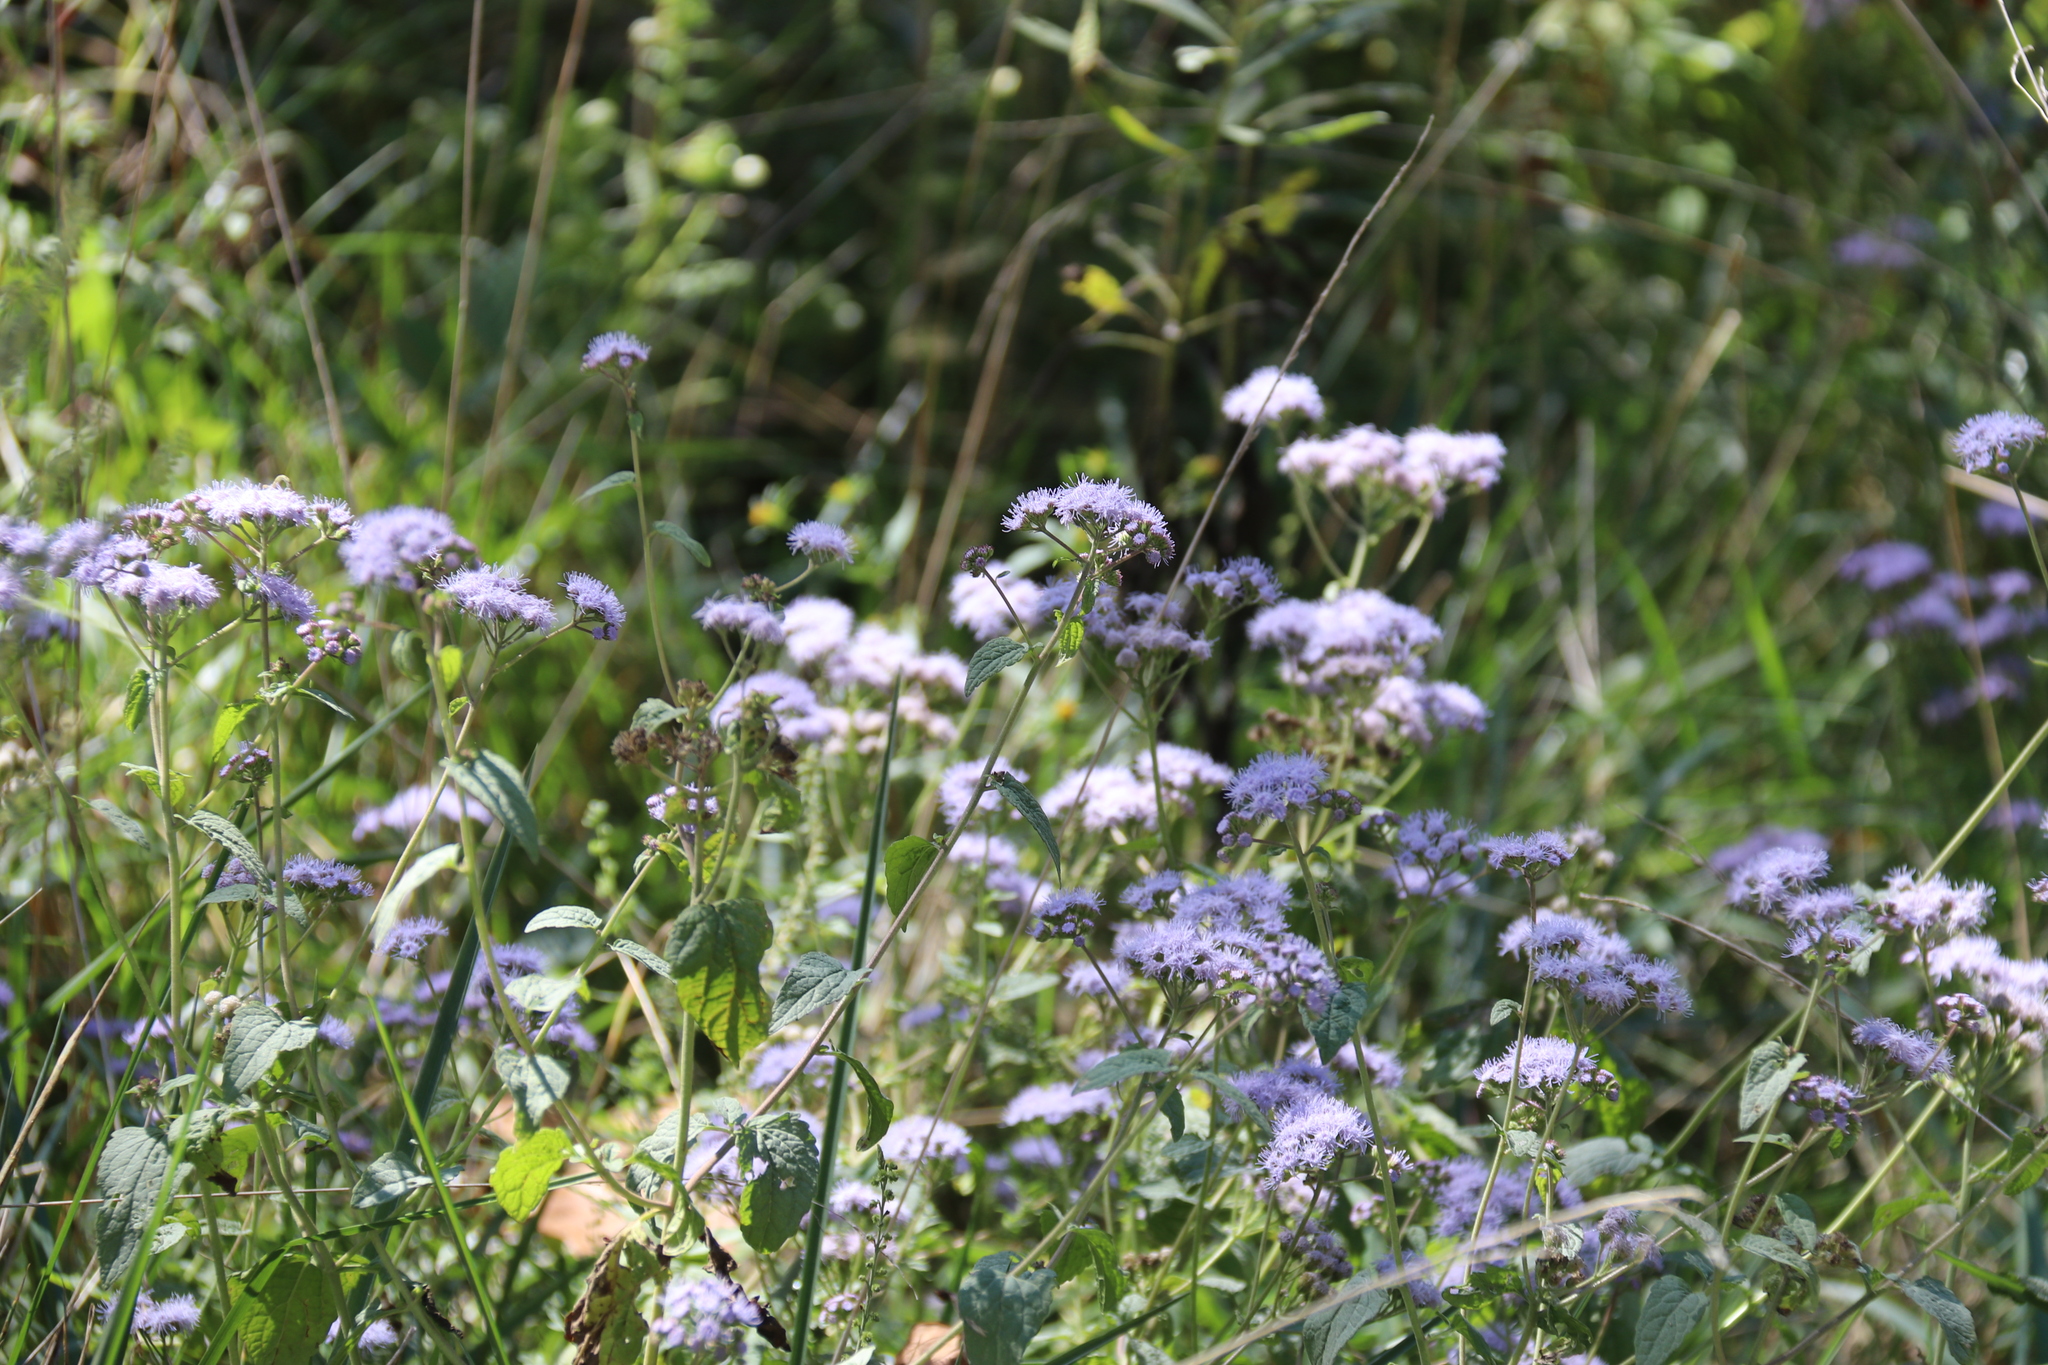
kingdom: Plantae
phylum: Tracheophyta
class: Magnoliopsida
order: Asterales
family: Asteraceae
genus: Conoclinium
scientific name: Conoclinium coelestinum
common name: Blue mistflower
